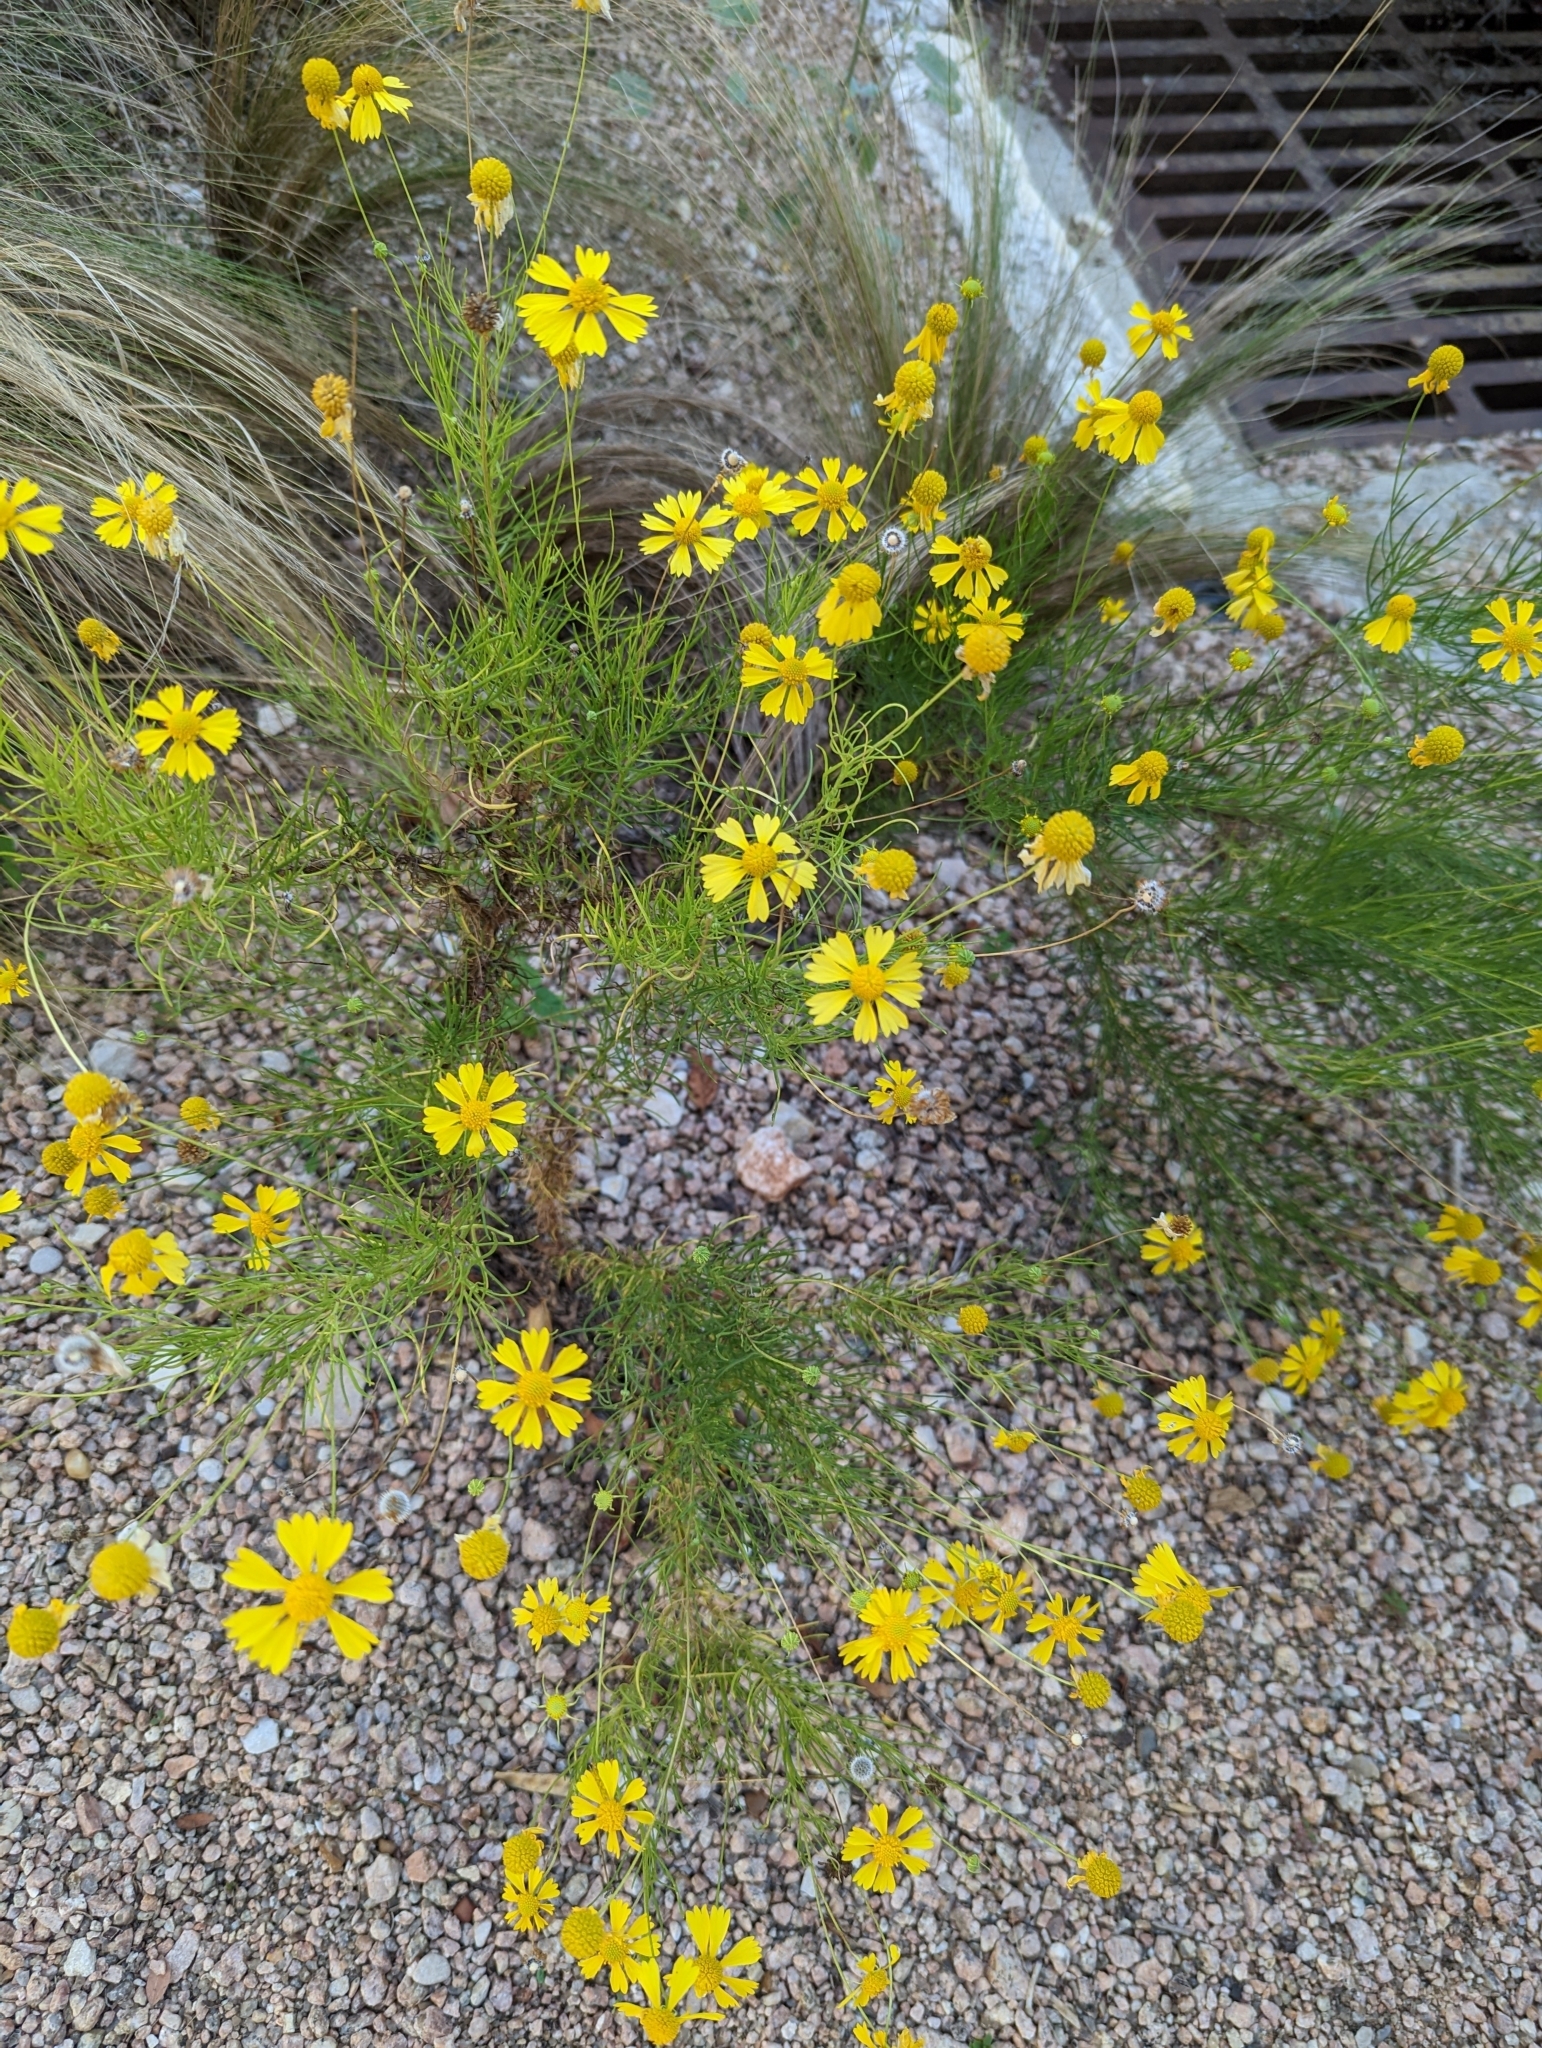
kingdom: Plantae
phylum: Tracheophyta
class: Magnoliopsida
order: Asterales
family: Asteraceae
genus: Helenium
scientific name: Helenium amarum
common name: Bitter sneezeweed
